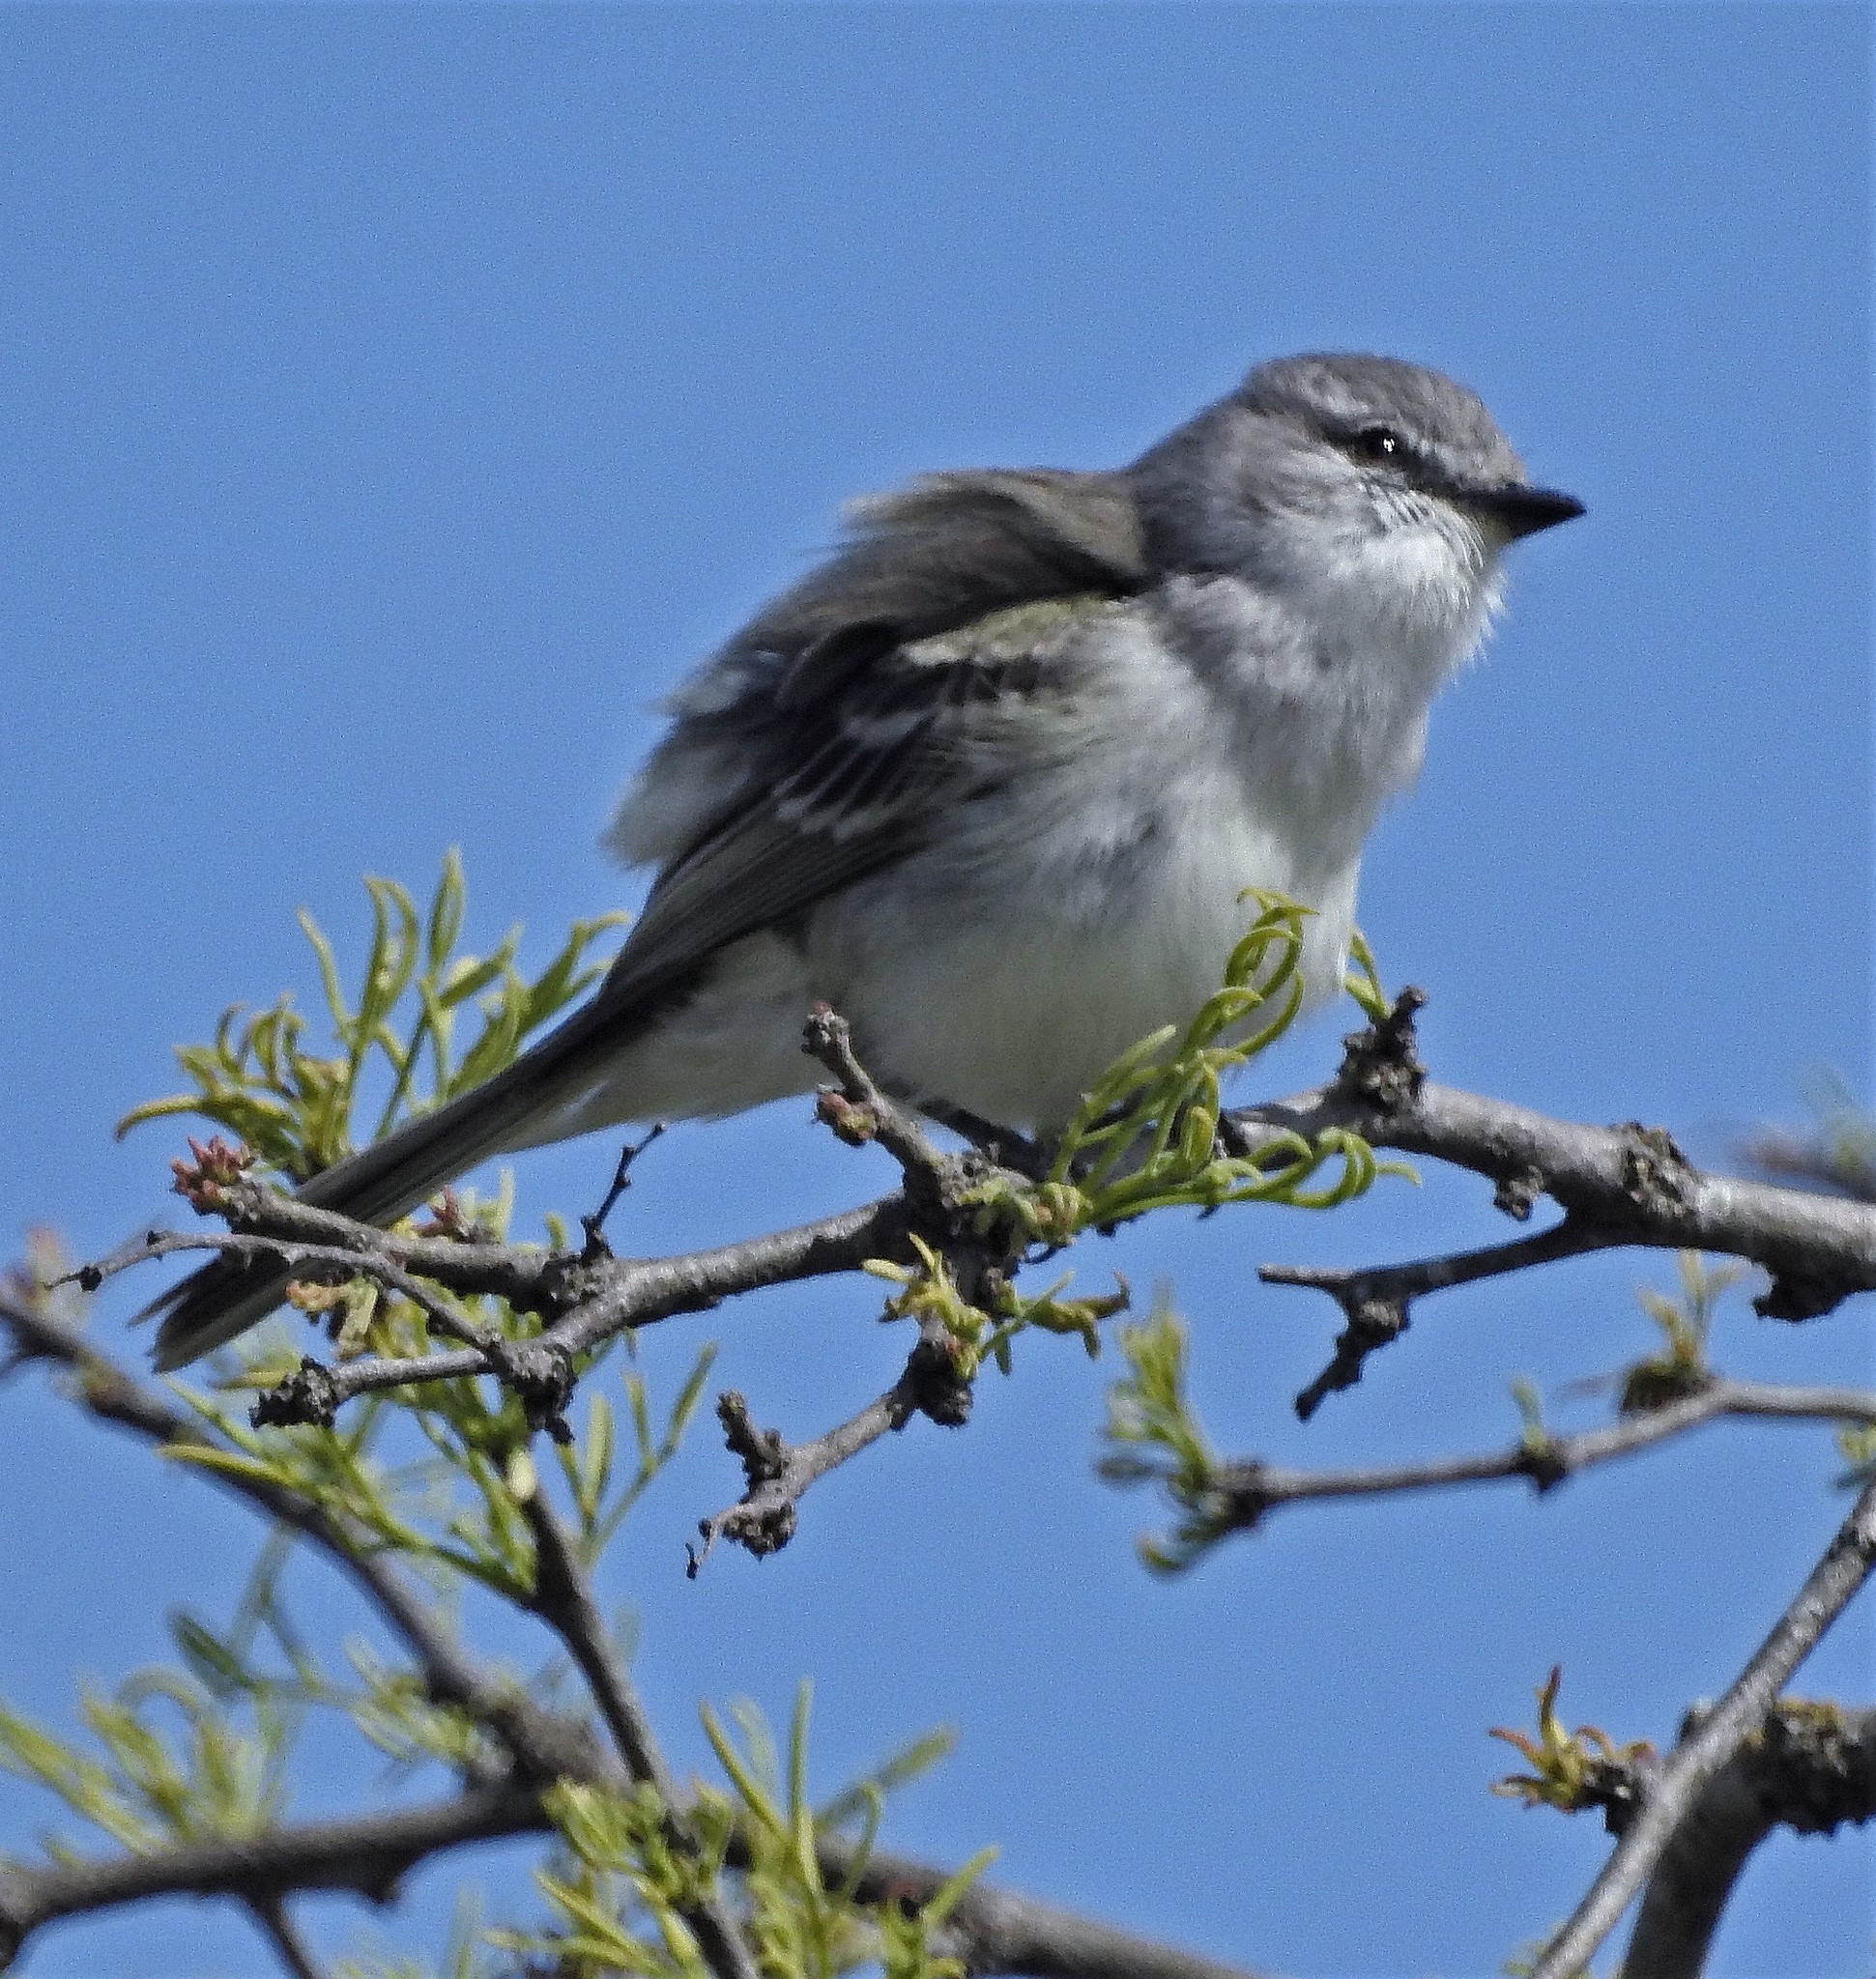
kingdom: Animalia
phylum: Chordata
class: Aves
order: Passeriformes
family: Tyrannidae
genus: Suiriri
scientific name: Suiriri suiriri
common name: Suiriri flycatcher
